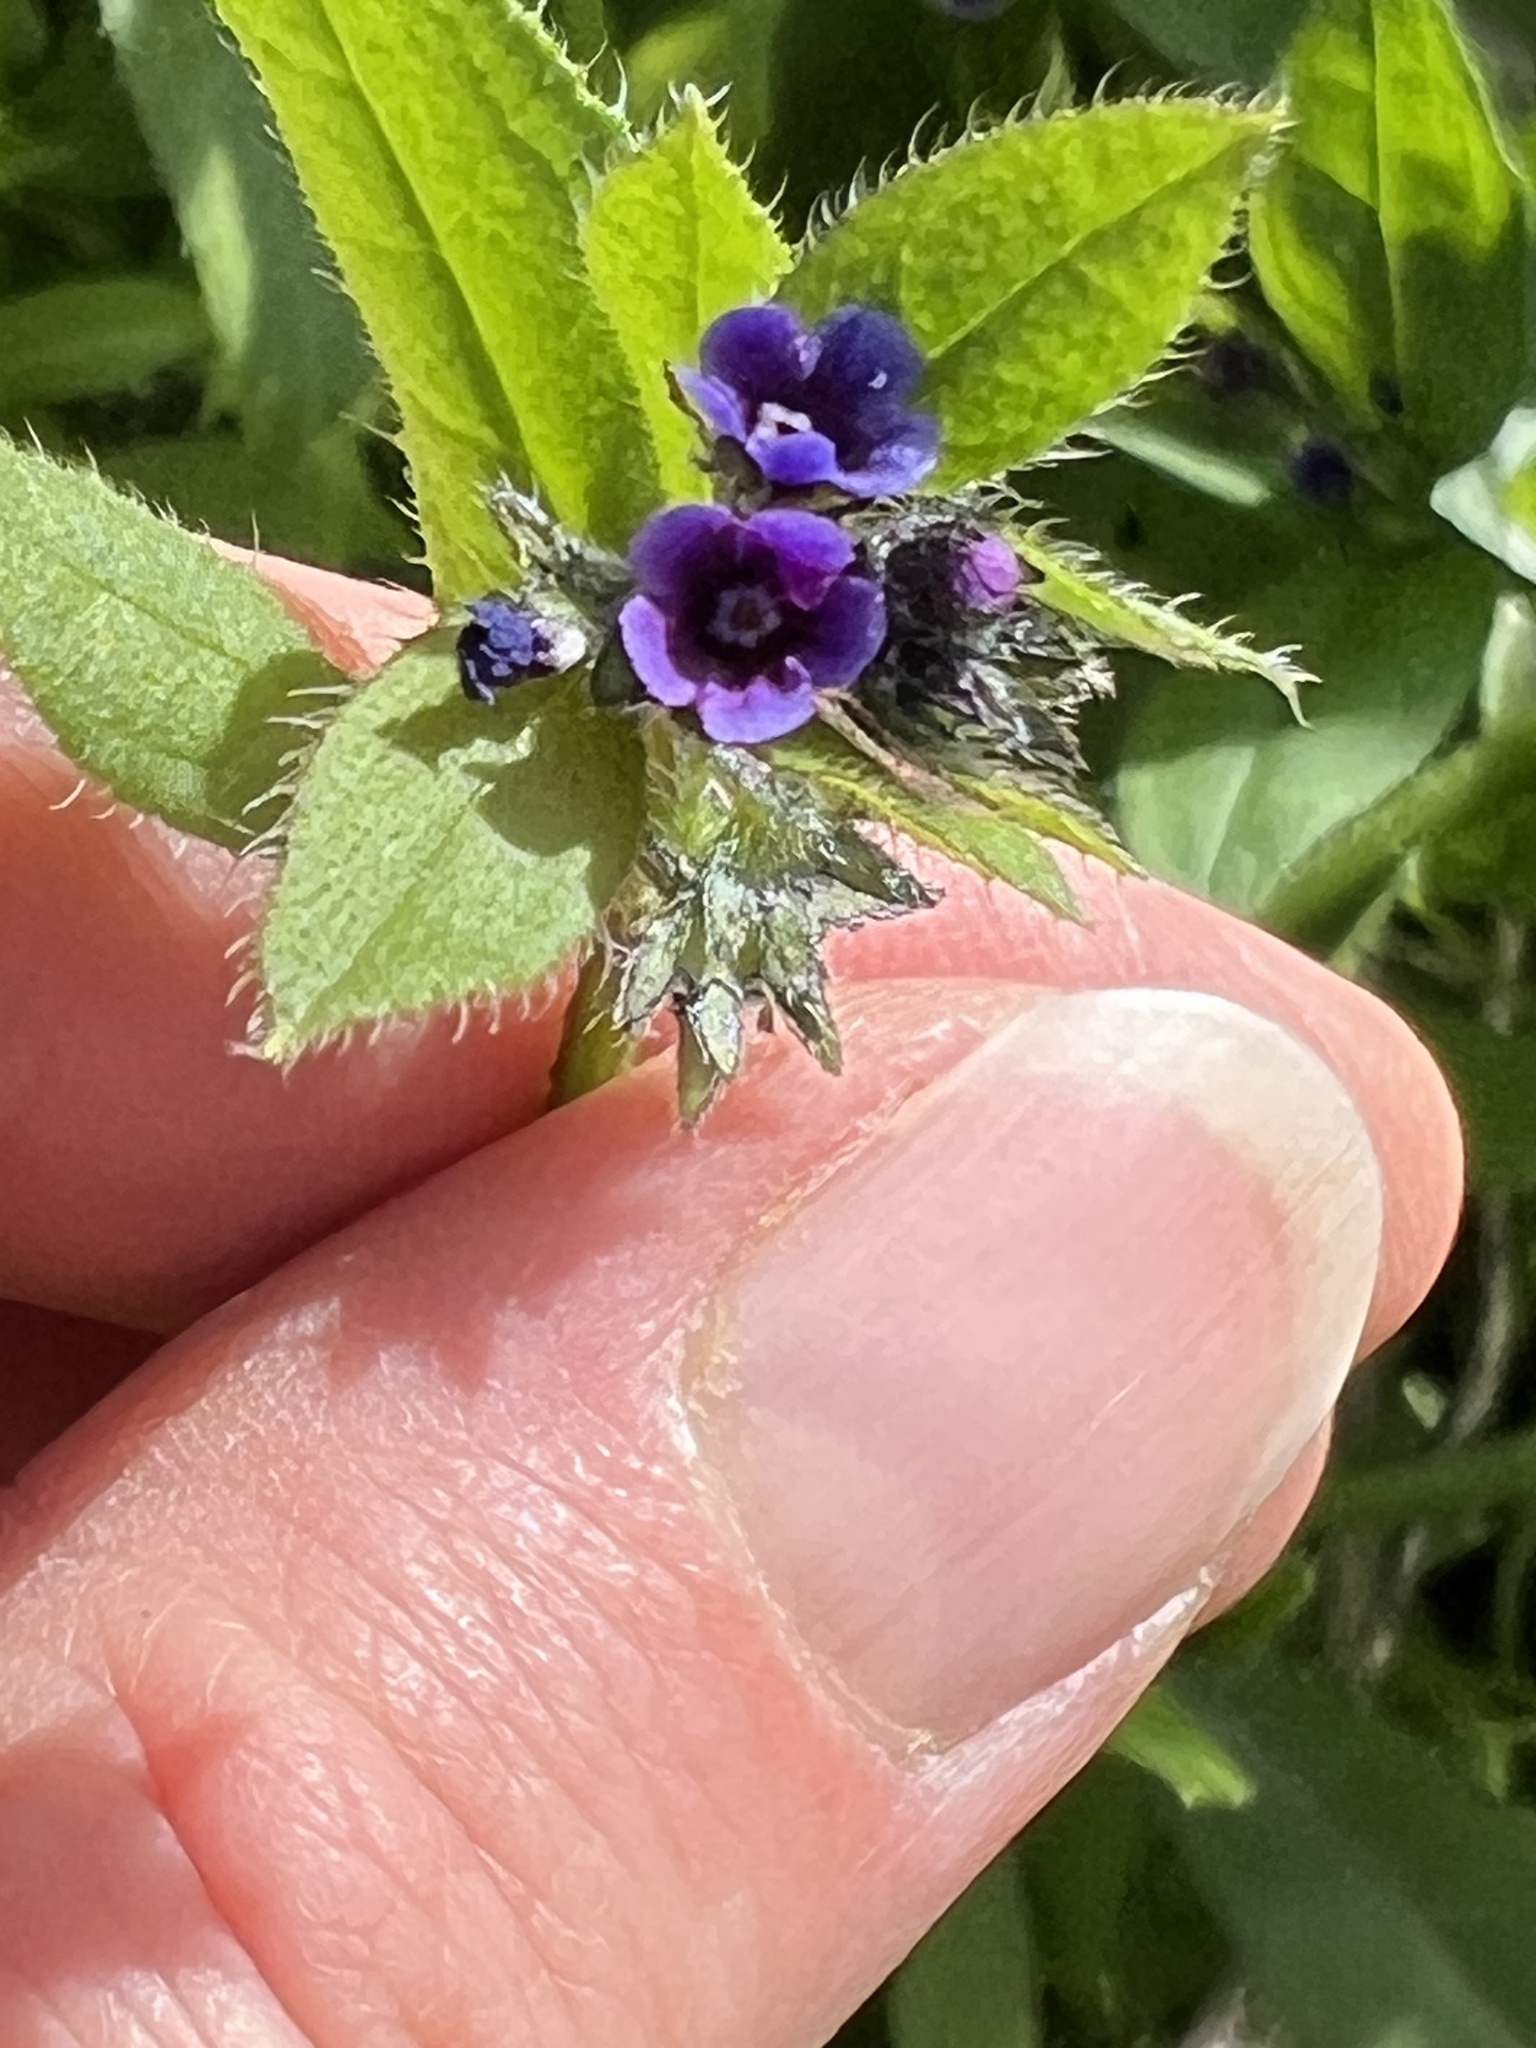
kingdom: Plantae
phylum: Tracheophyta
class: Magnoliopsida
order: Boraginales
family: Boraginaceae
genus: Asperugo
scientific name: Asperugo procumbens
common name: Madwort
